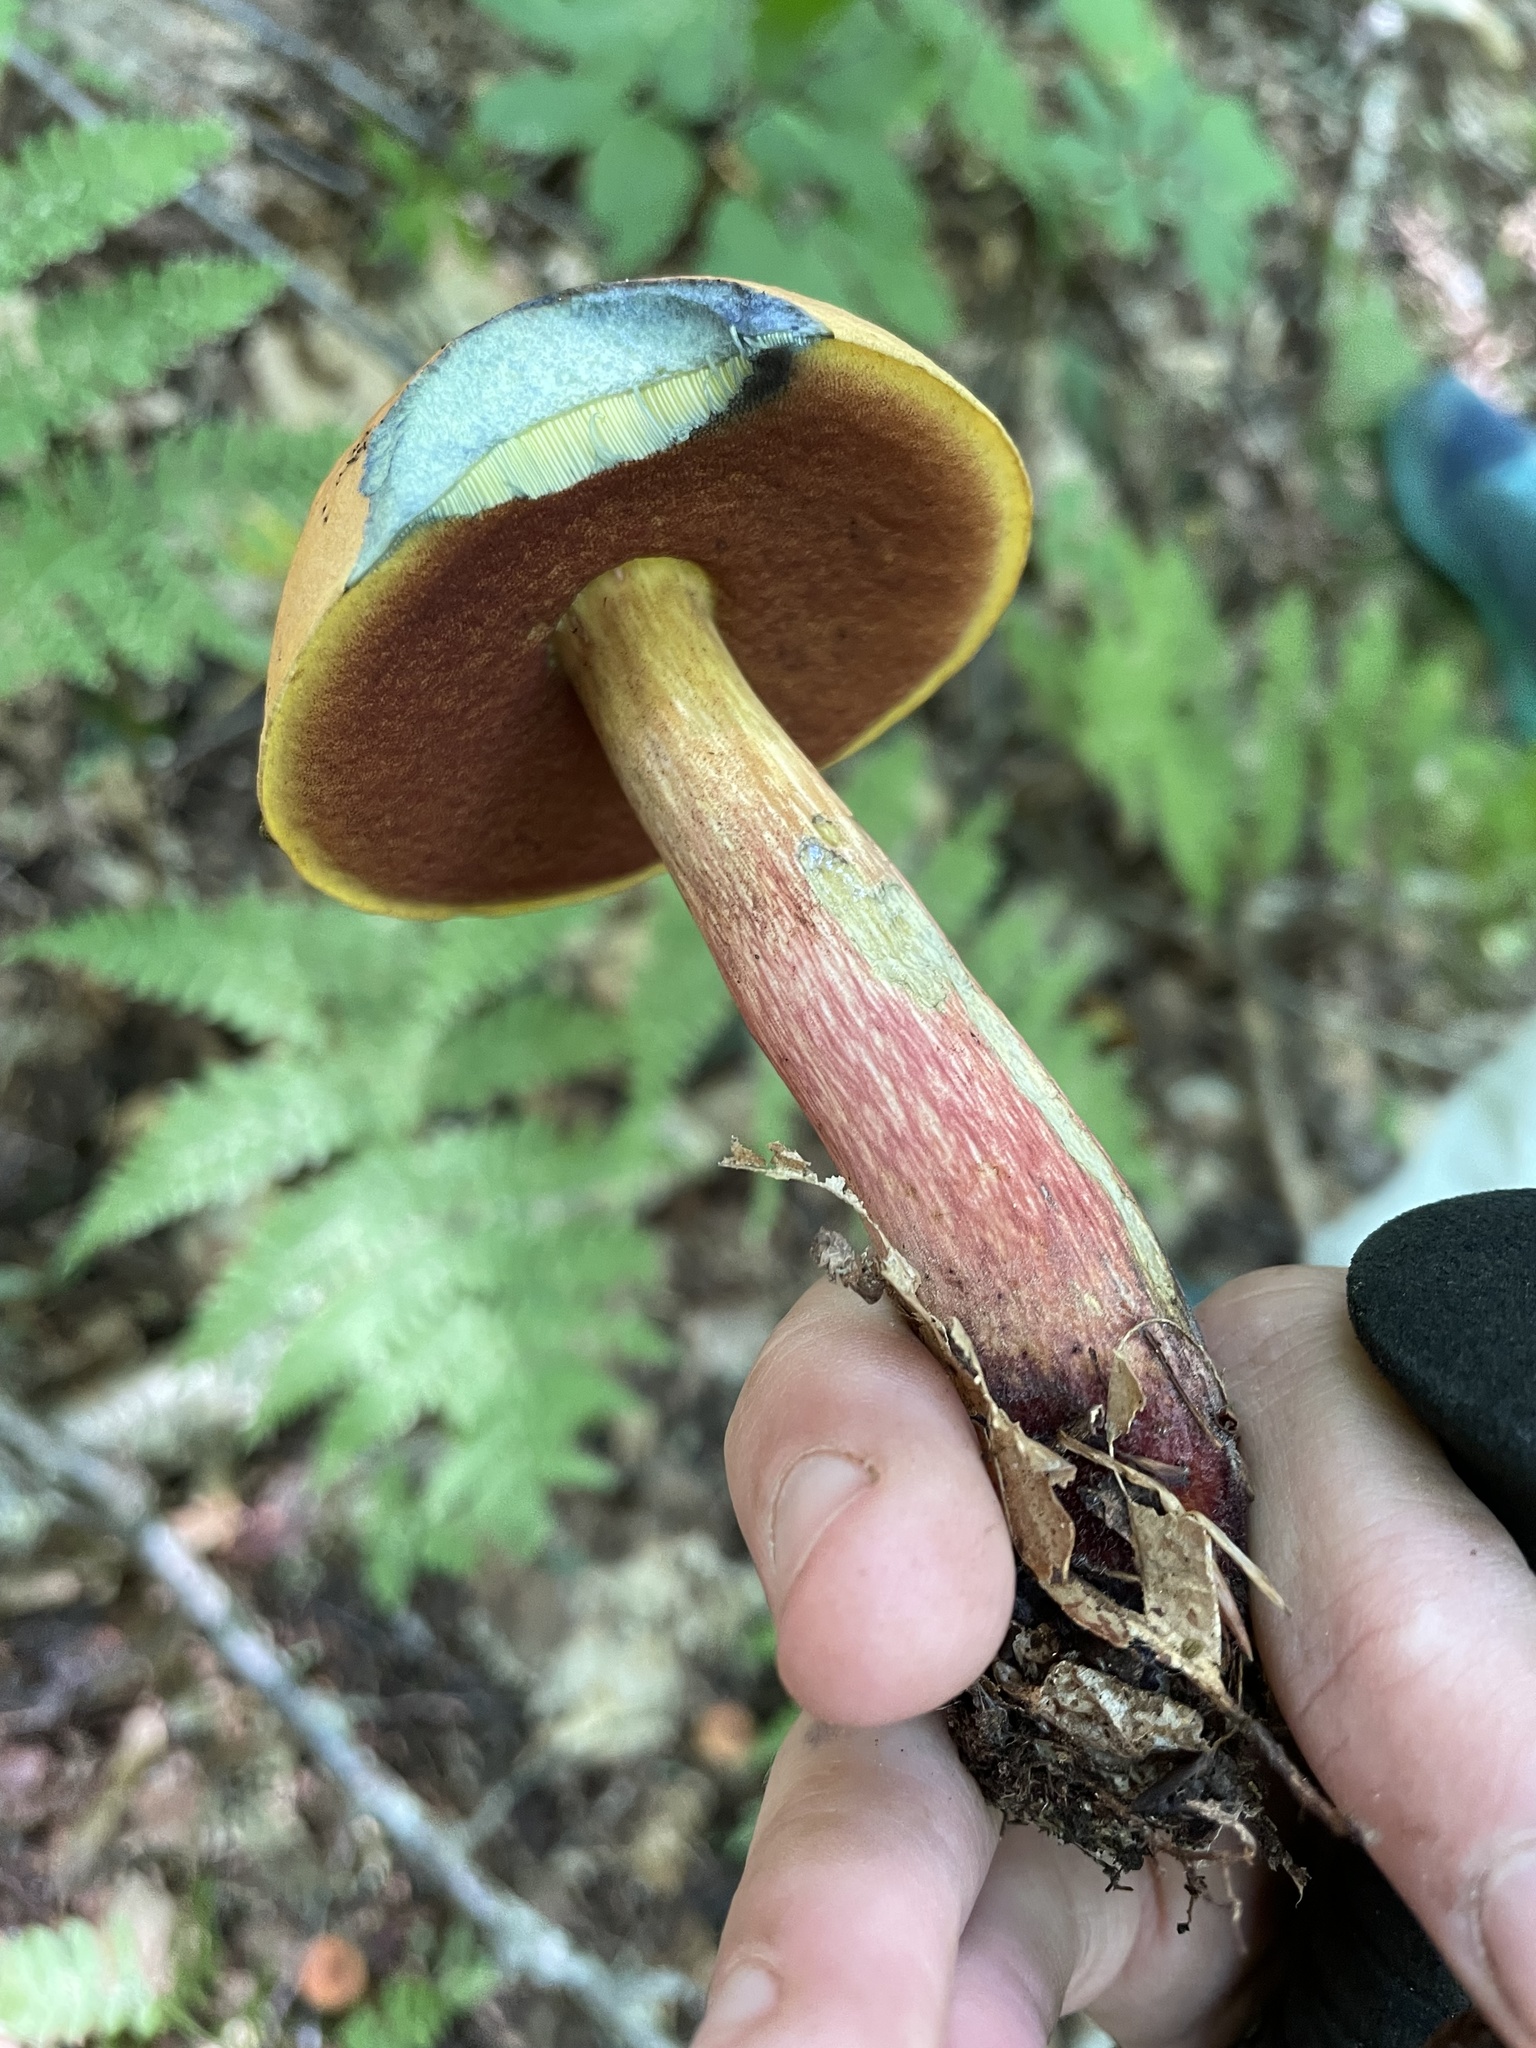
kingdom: Fungi
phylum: Basidiomycota
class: Agaricomycetes
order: Boletales
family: Boletaceae
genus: Boletus
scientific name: Boletus subvelutipes
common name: Red-mouth bolete
